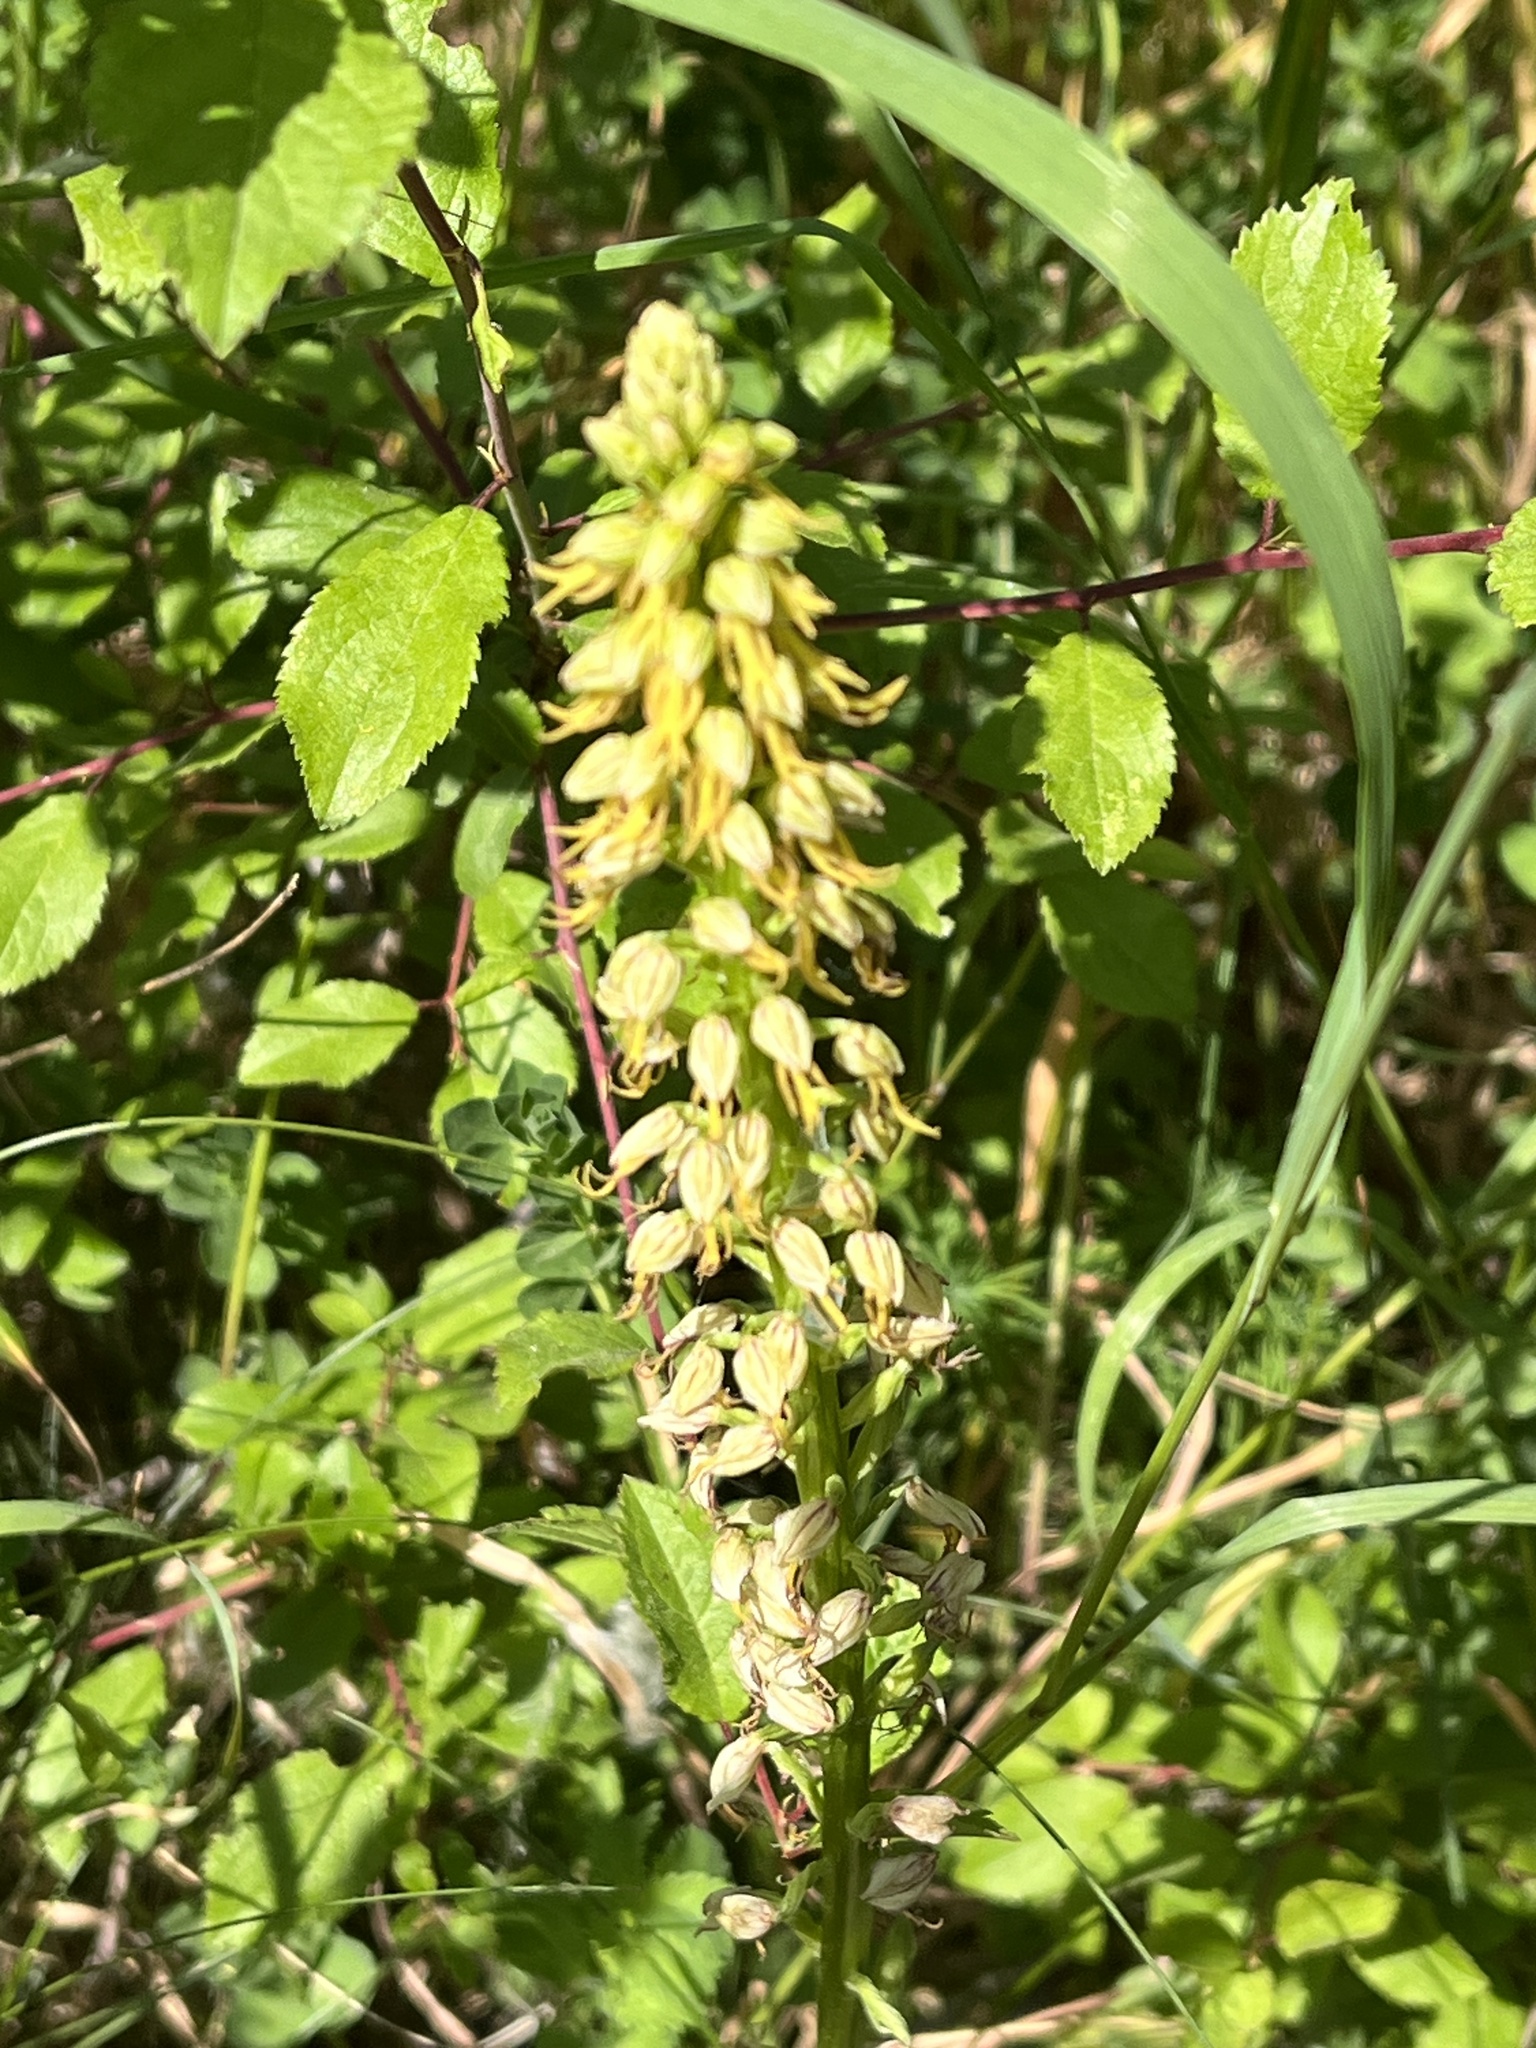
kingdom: Plantae
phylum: Tracheophyta
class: Liliopsida
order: Asparagales
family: Orchidaceae
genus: Orchis
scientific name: Orchis anthropophora
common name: Man orchid
